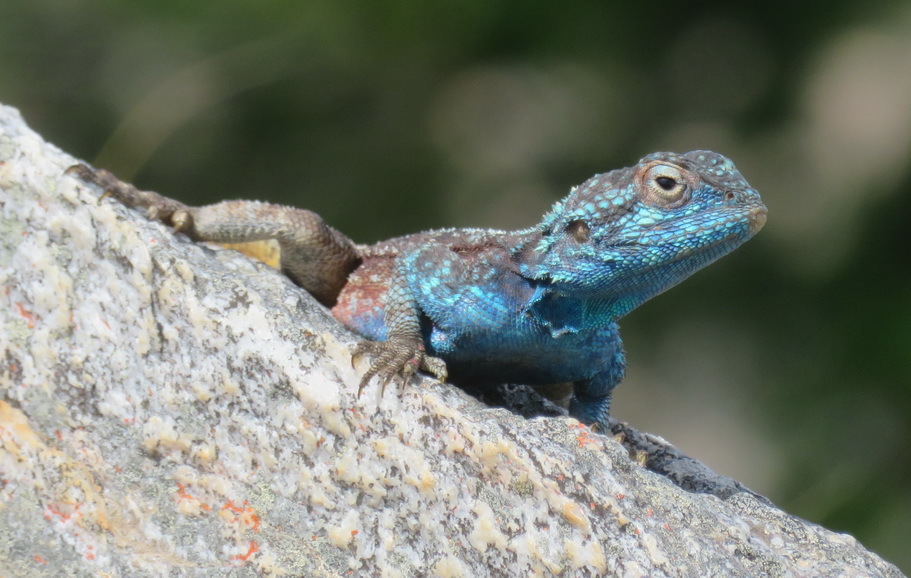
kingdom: Animalia
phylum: Chordata
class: Squamata
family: Agamidae
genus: Agama
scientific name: Agama atra
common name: Southern african rock agama
